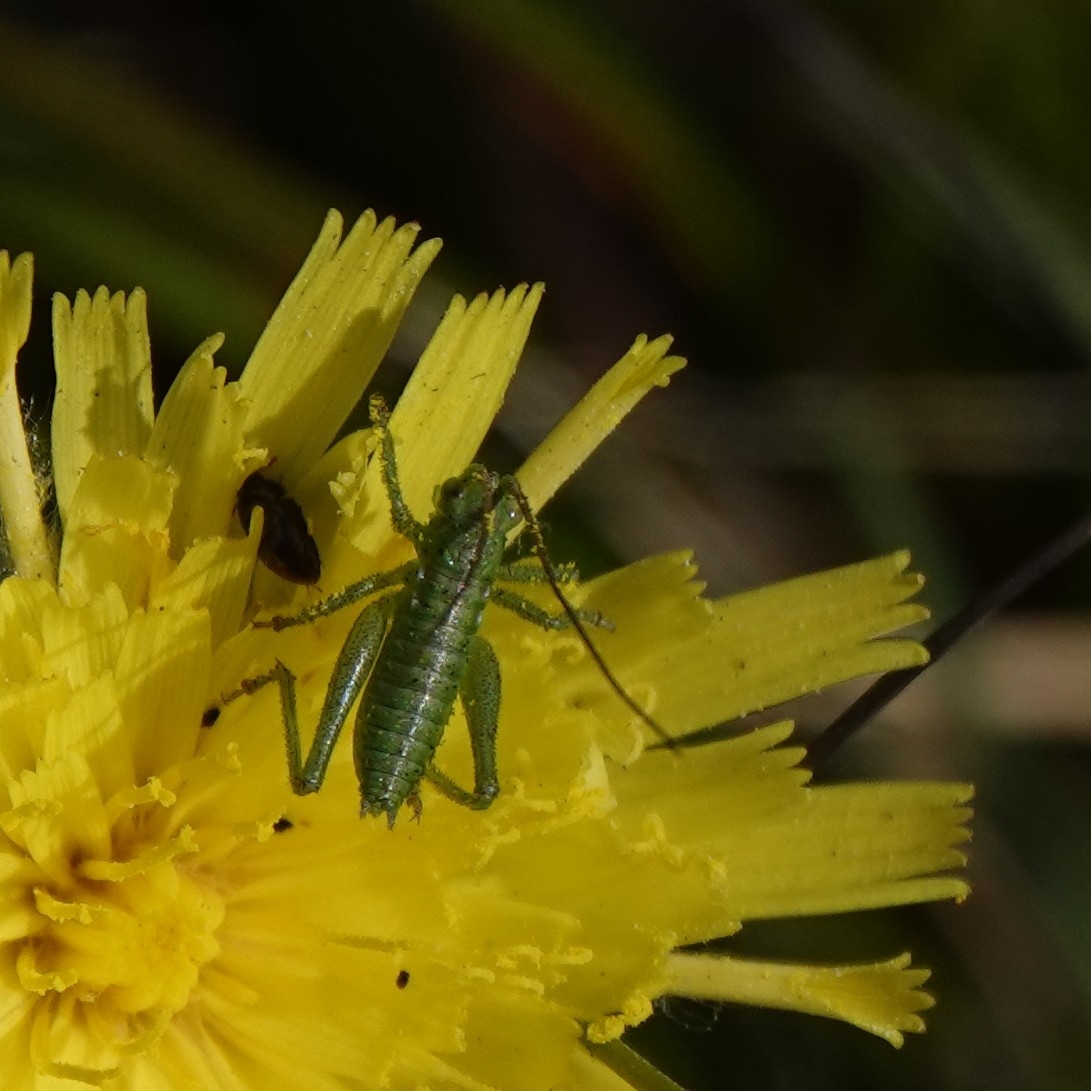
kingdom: Animalia
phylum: Arthropoda
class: Insecta
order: Orthoptera
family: Tettigoniidae
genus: Tettigonia
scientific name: Tettigonia viridissima
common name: Great green bush-cricket
